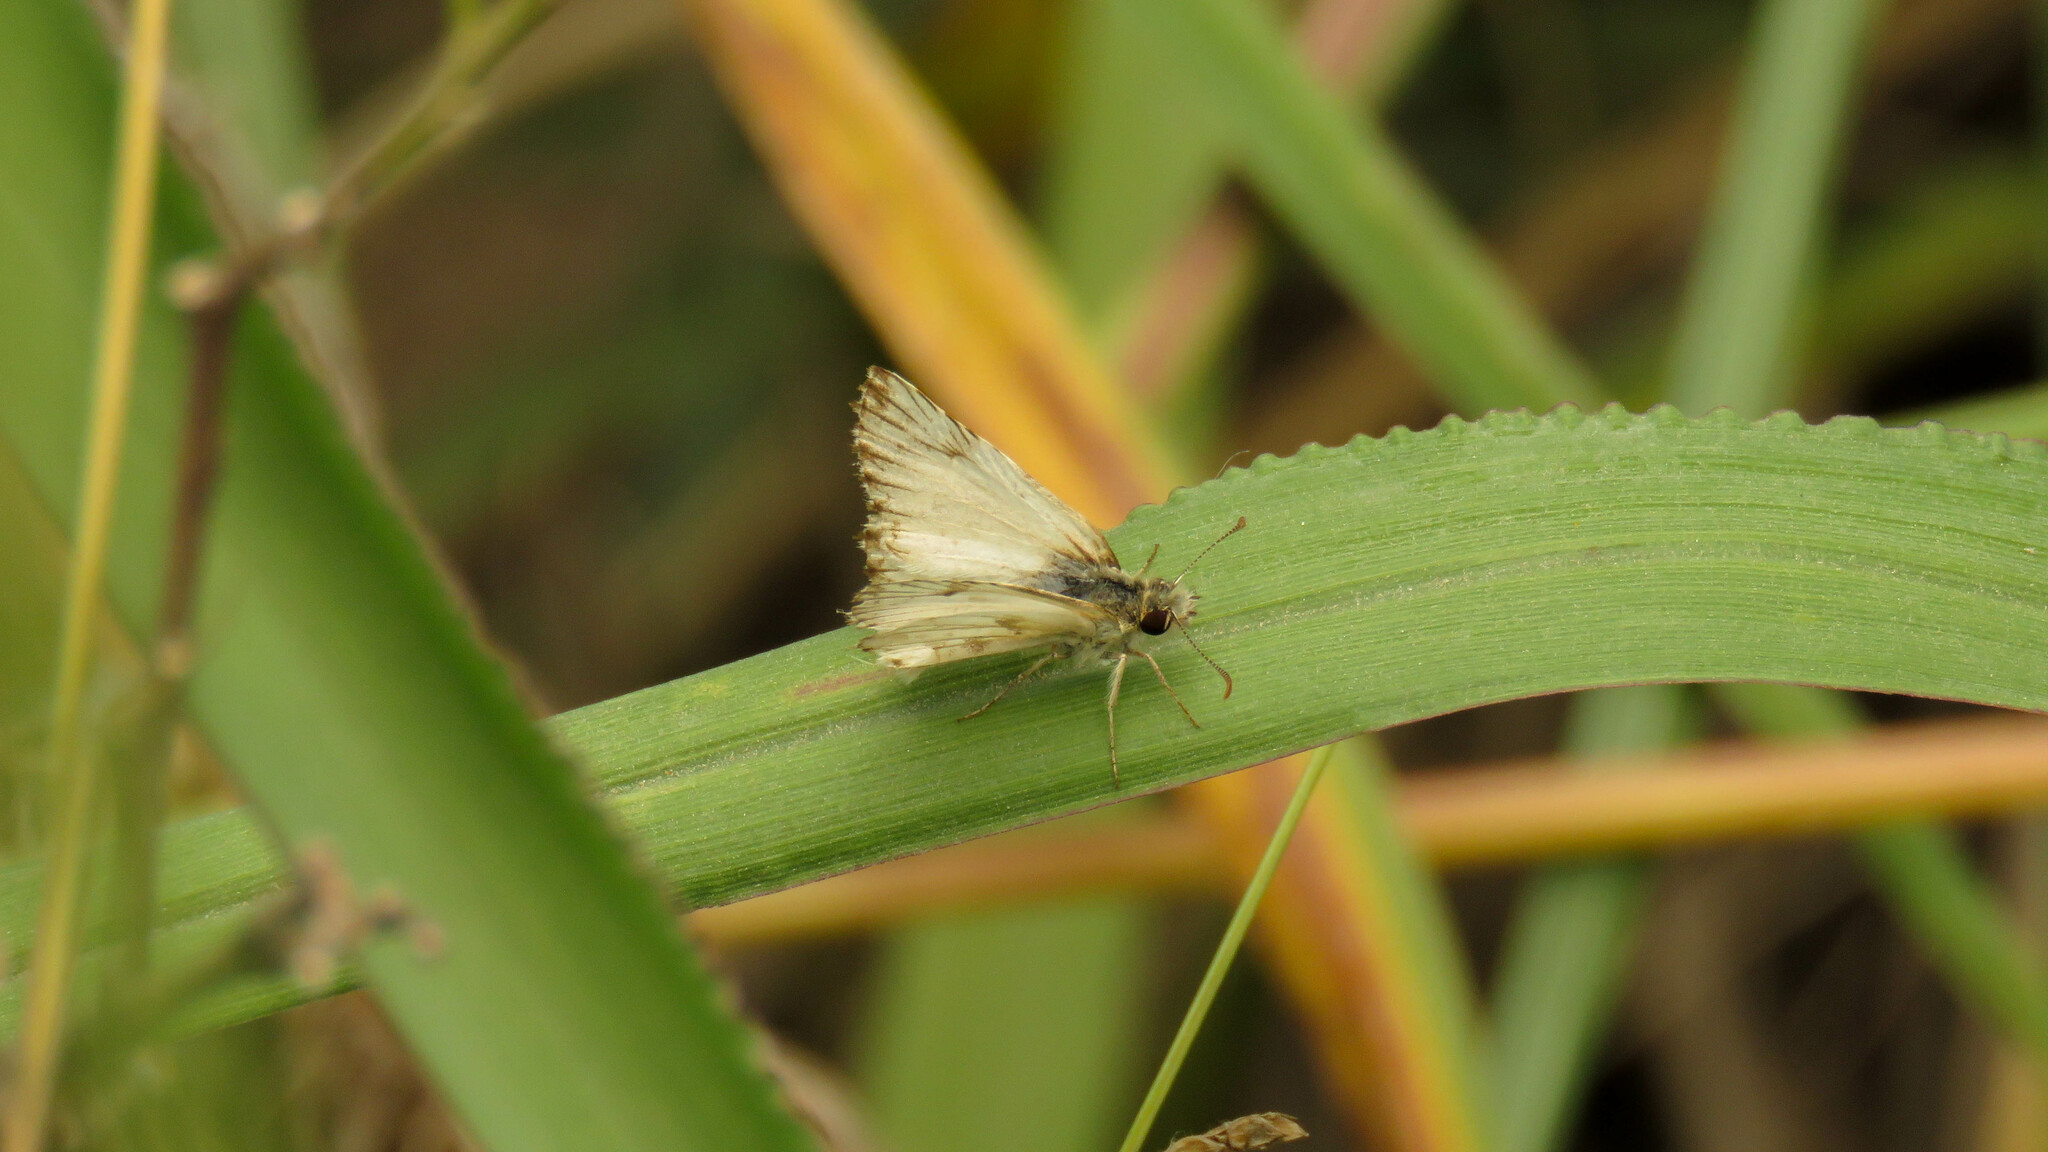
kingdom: Animalia
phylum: Arthropoda
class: Insecta
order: Lepidoptera
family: Hesperiidae
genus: Heliopetes
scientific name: Heliopetes omrina
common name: Stained white-skipper
